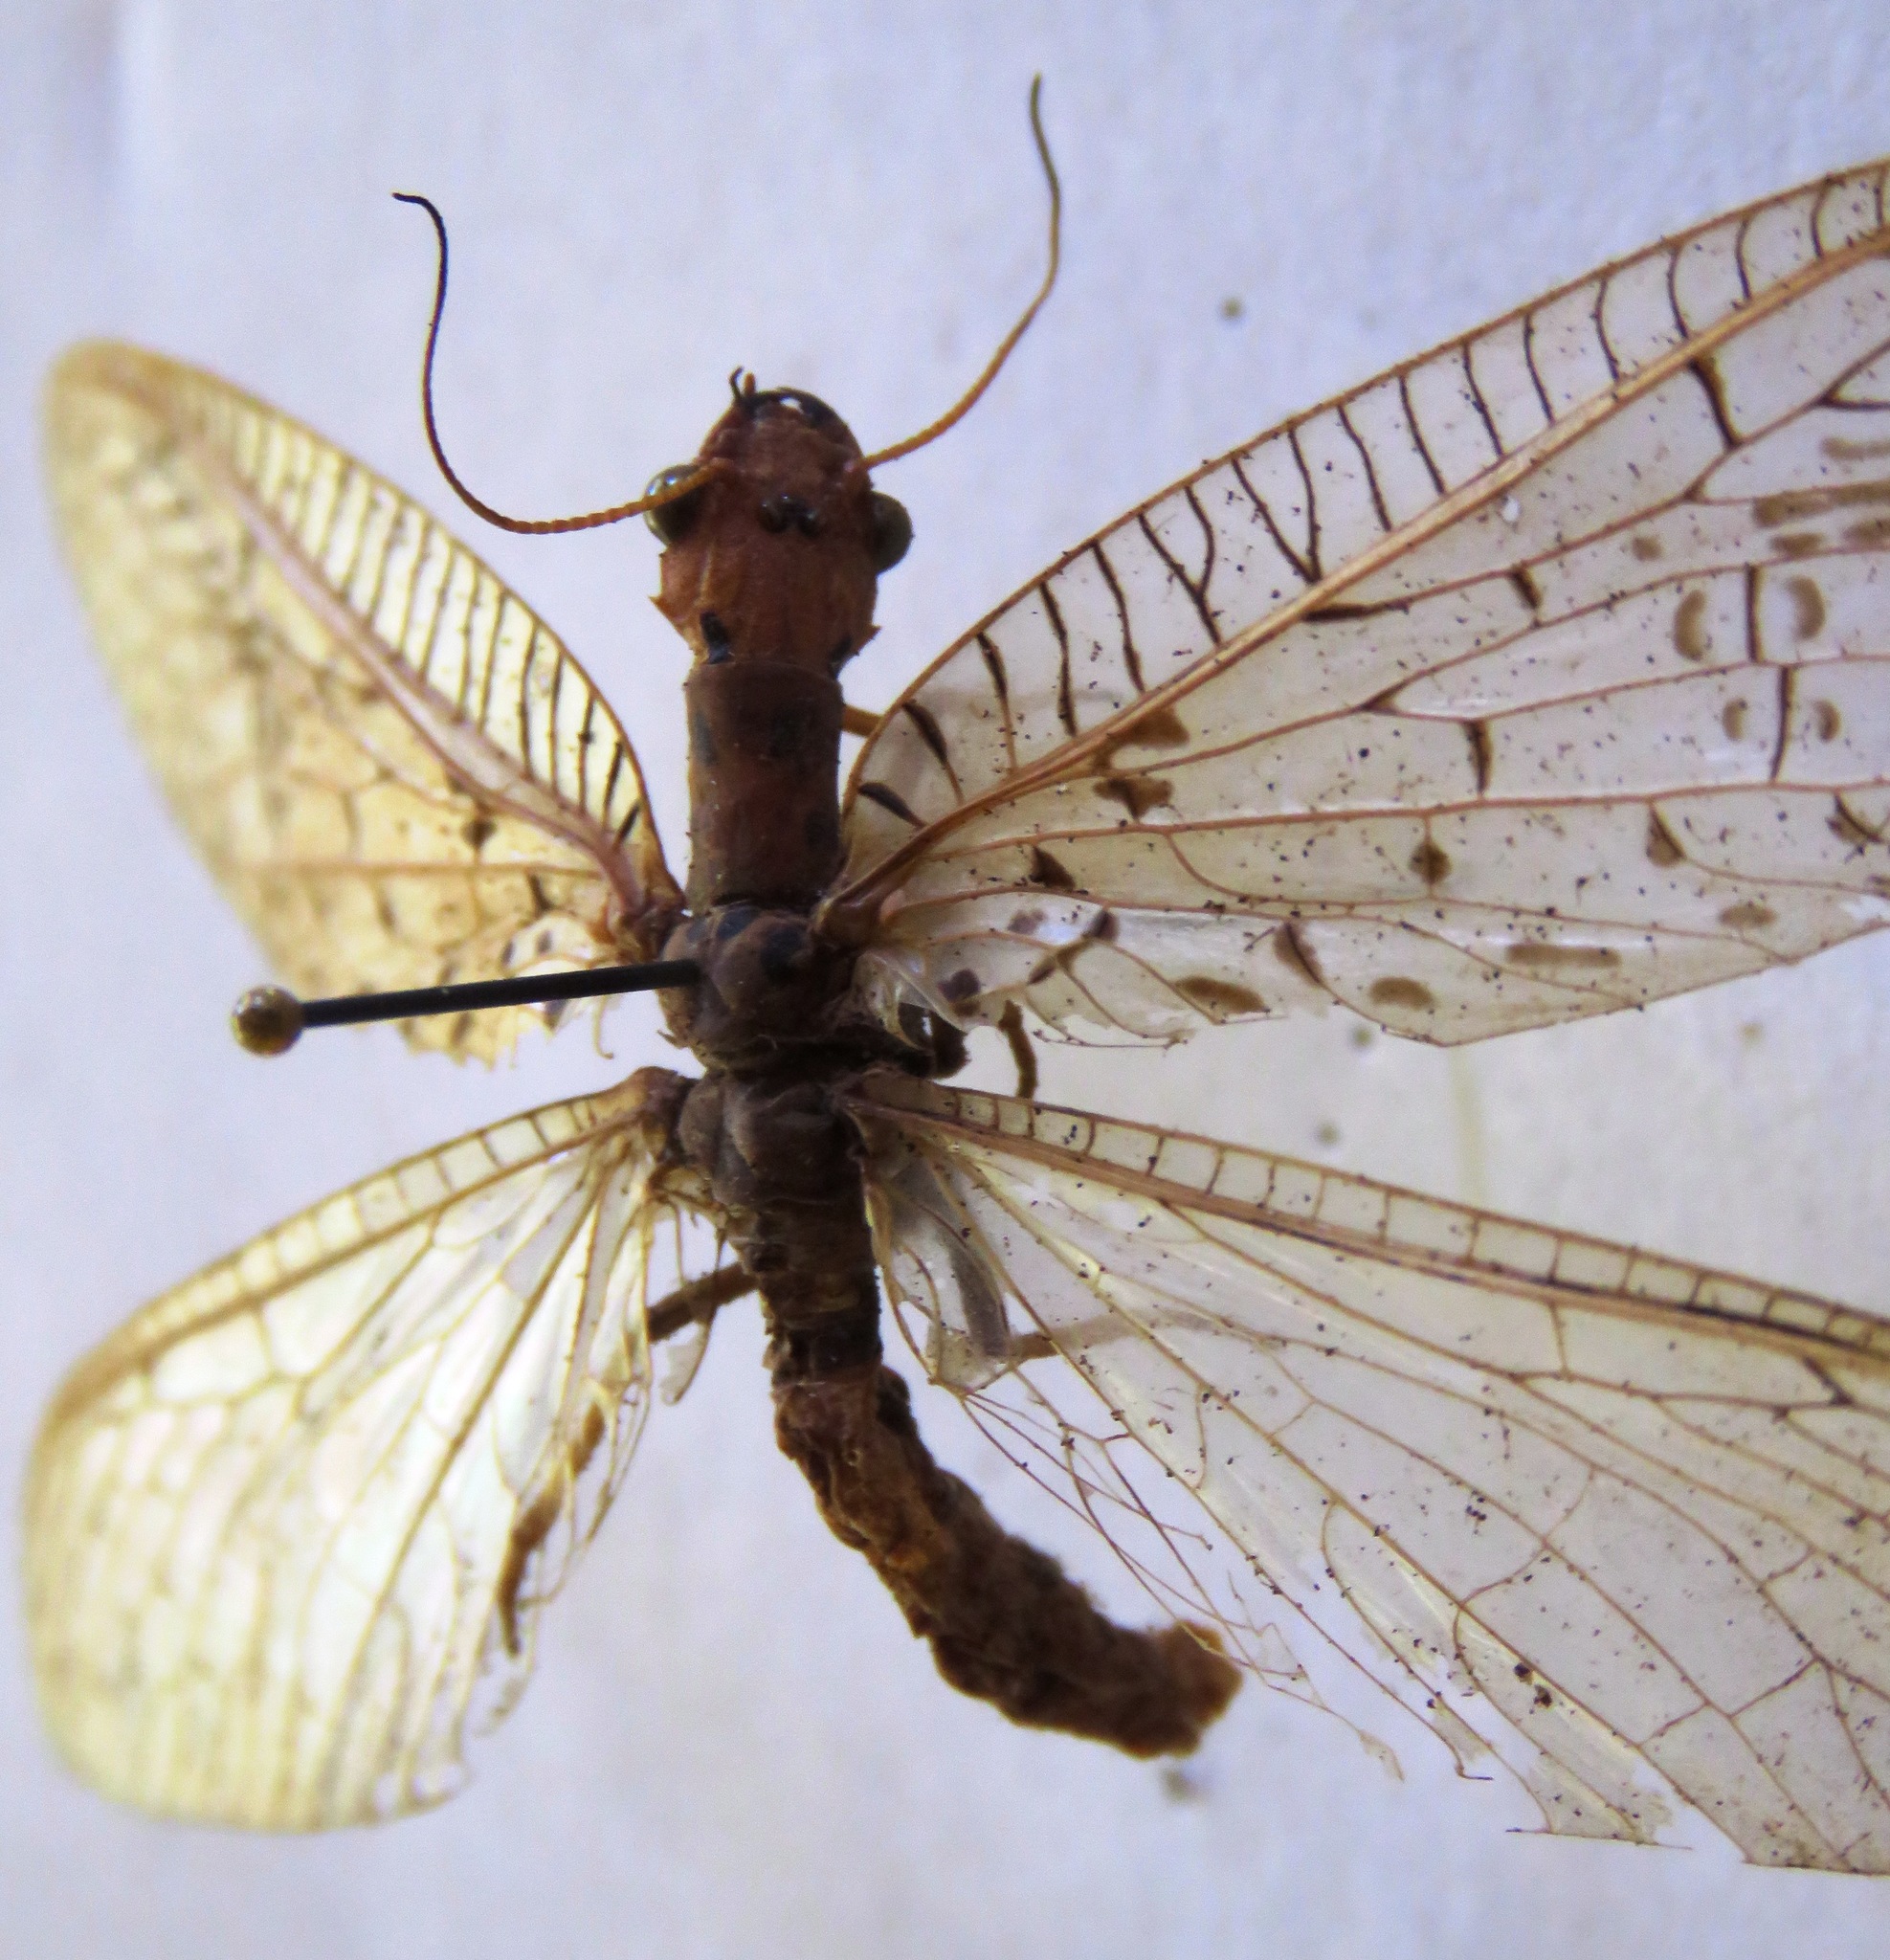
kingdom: Animalia
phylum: Arthropoda
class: Insecta
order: Megaloptera
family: Corydalidae
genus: Chloronia
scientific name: Chloronia mirifica
